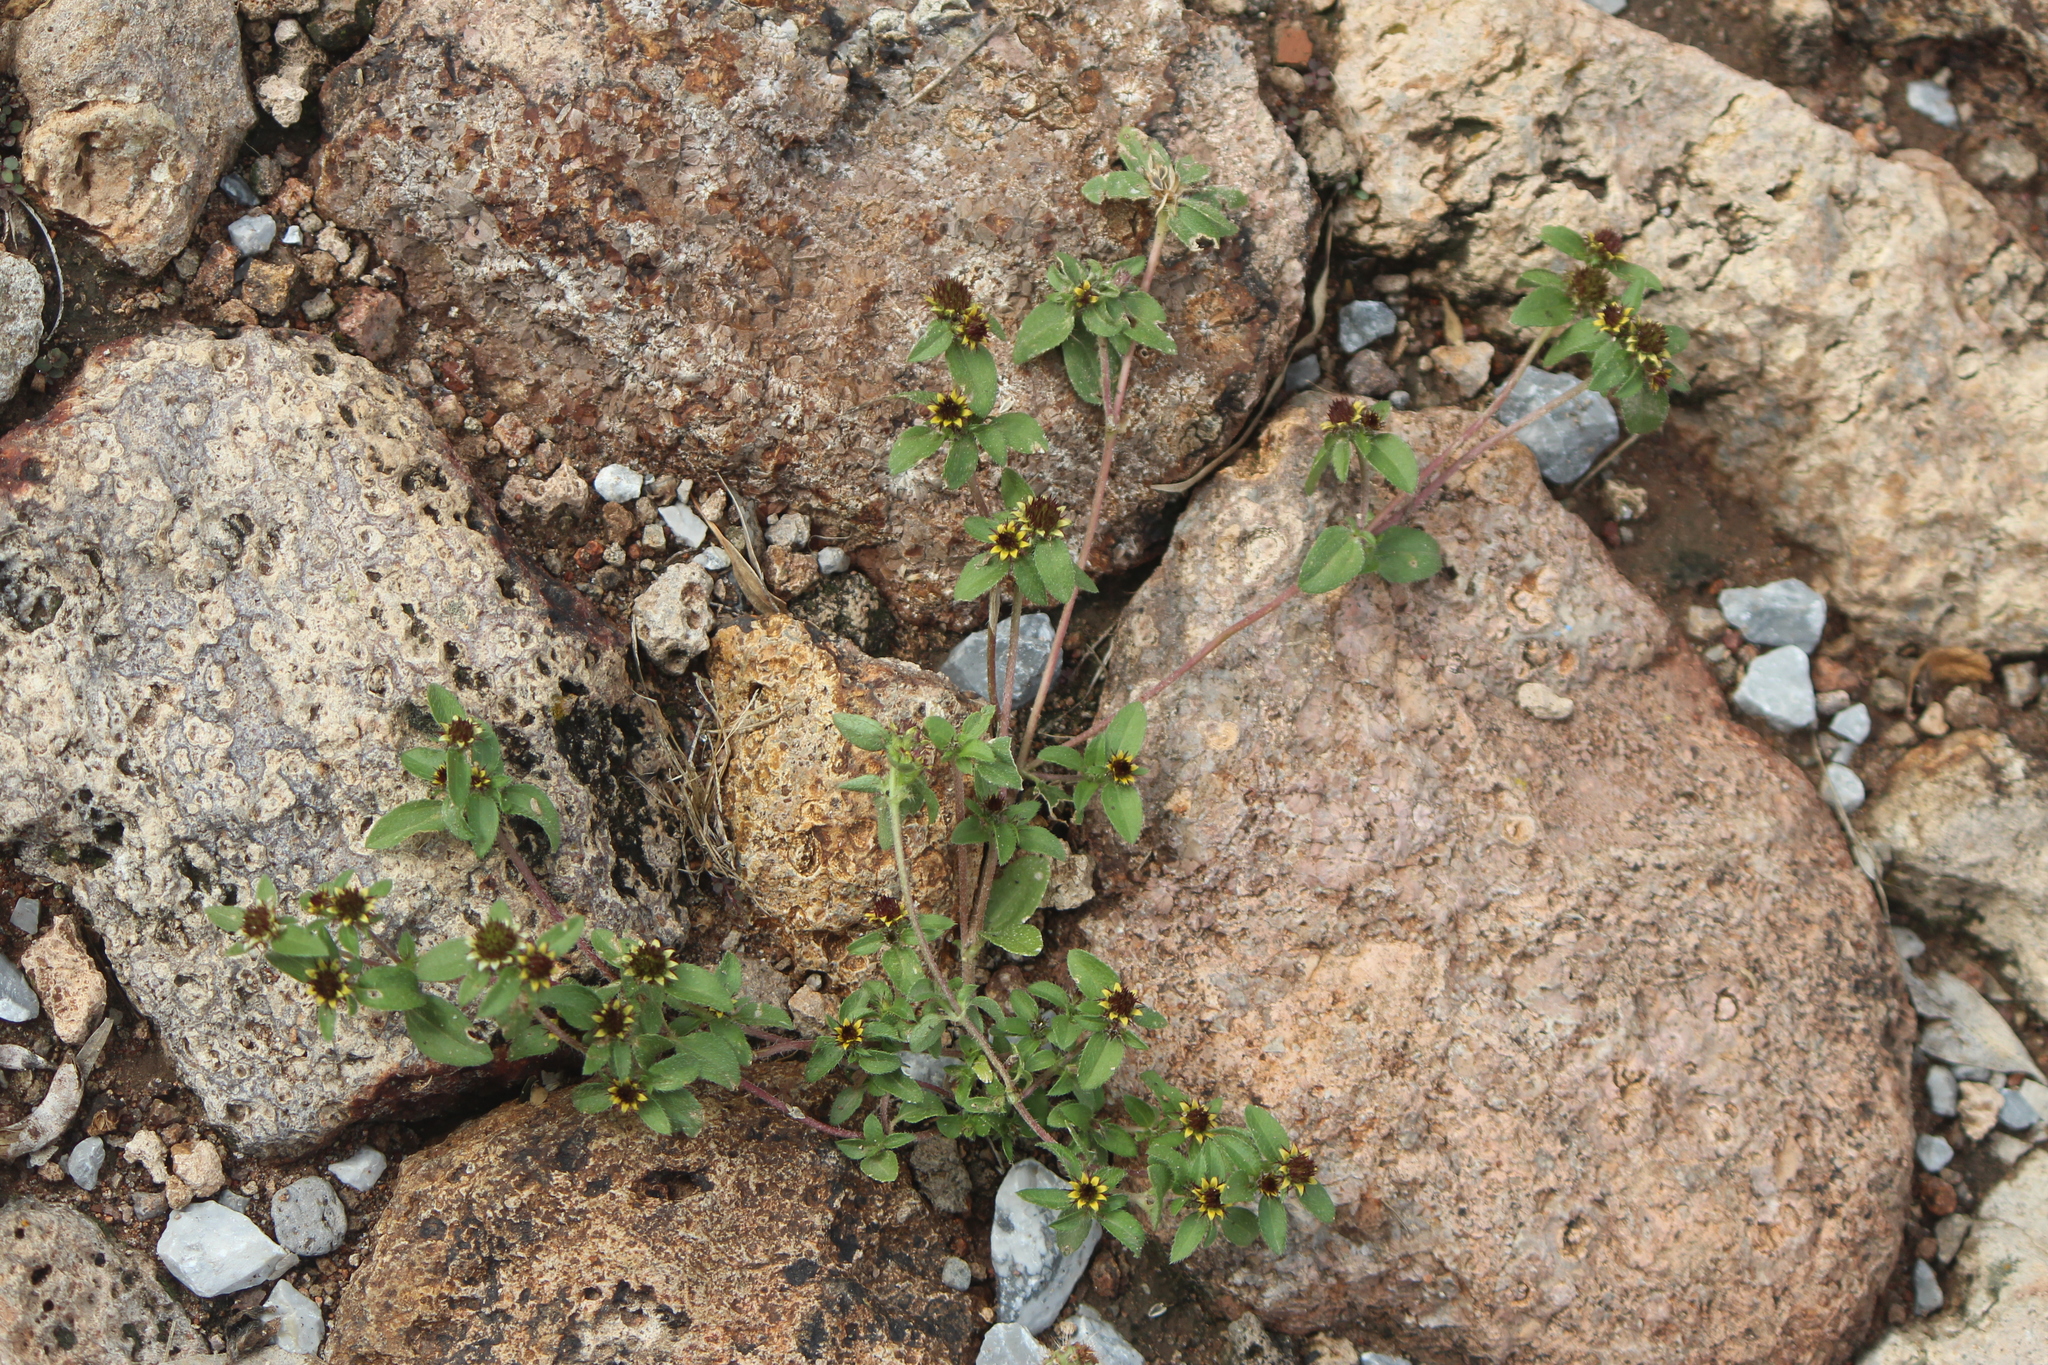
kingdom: Plantae
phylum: Tracheophyta
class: Magnoliopsida
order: Asterales
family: Asteraceae
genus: Sanvitalia
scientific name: Sanvitalia angustifolia
